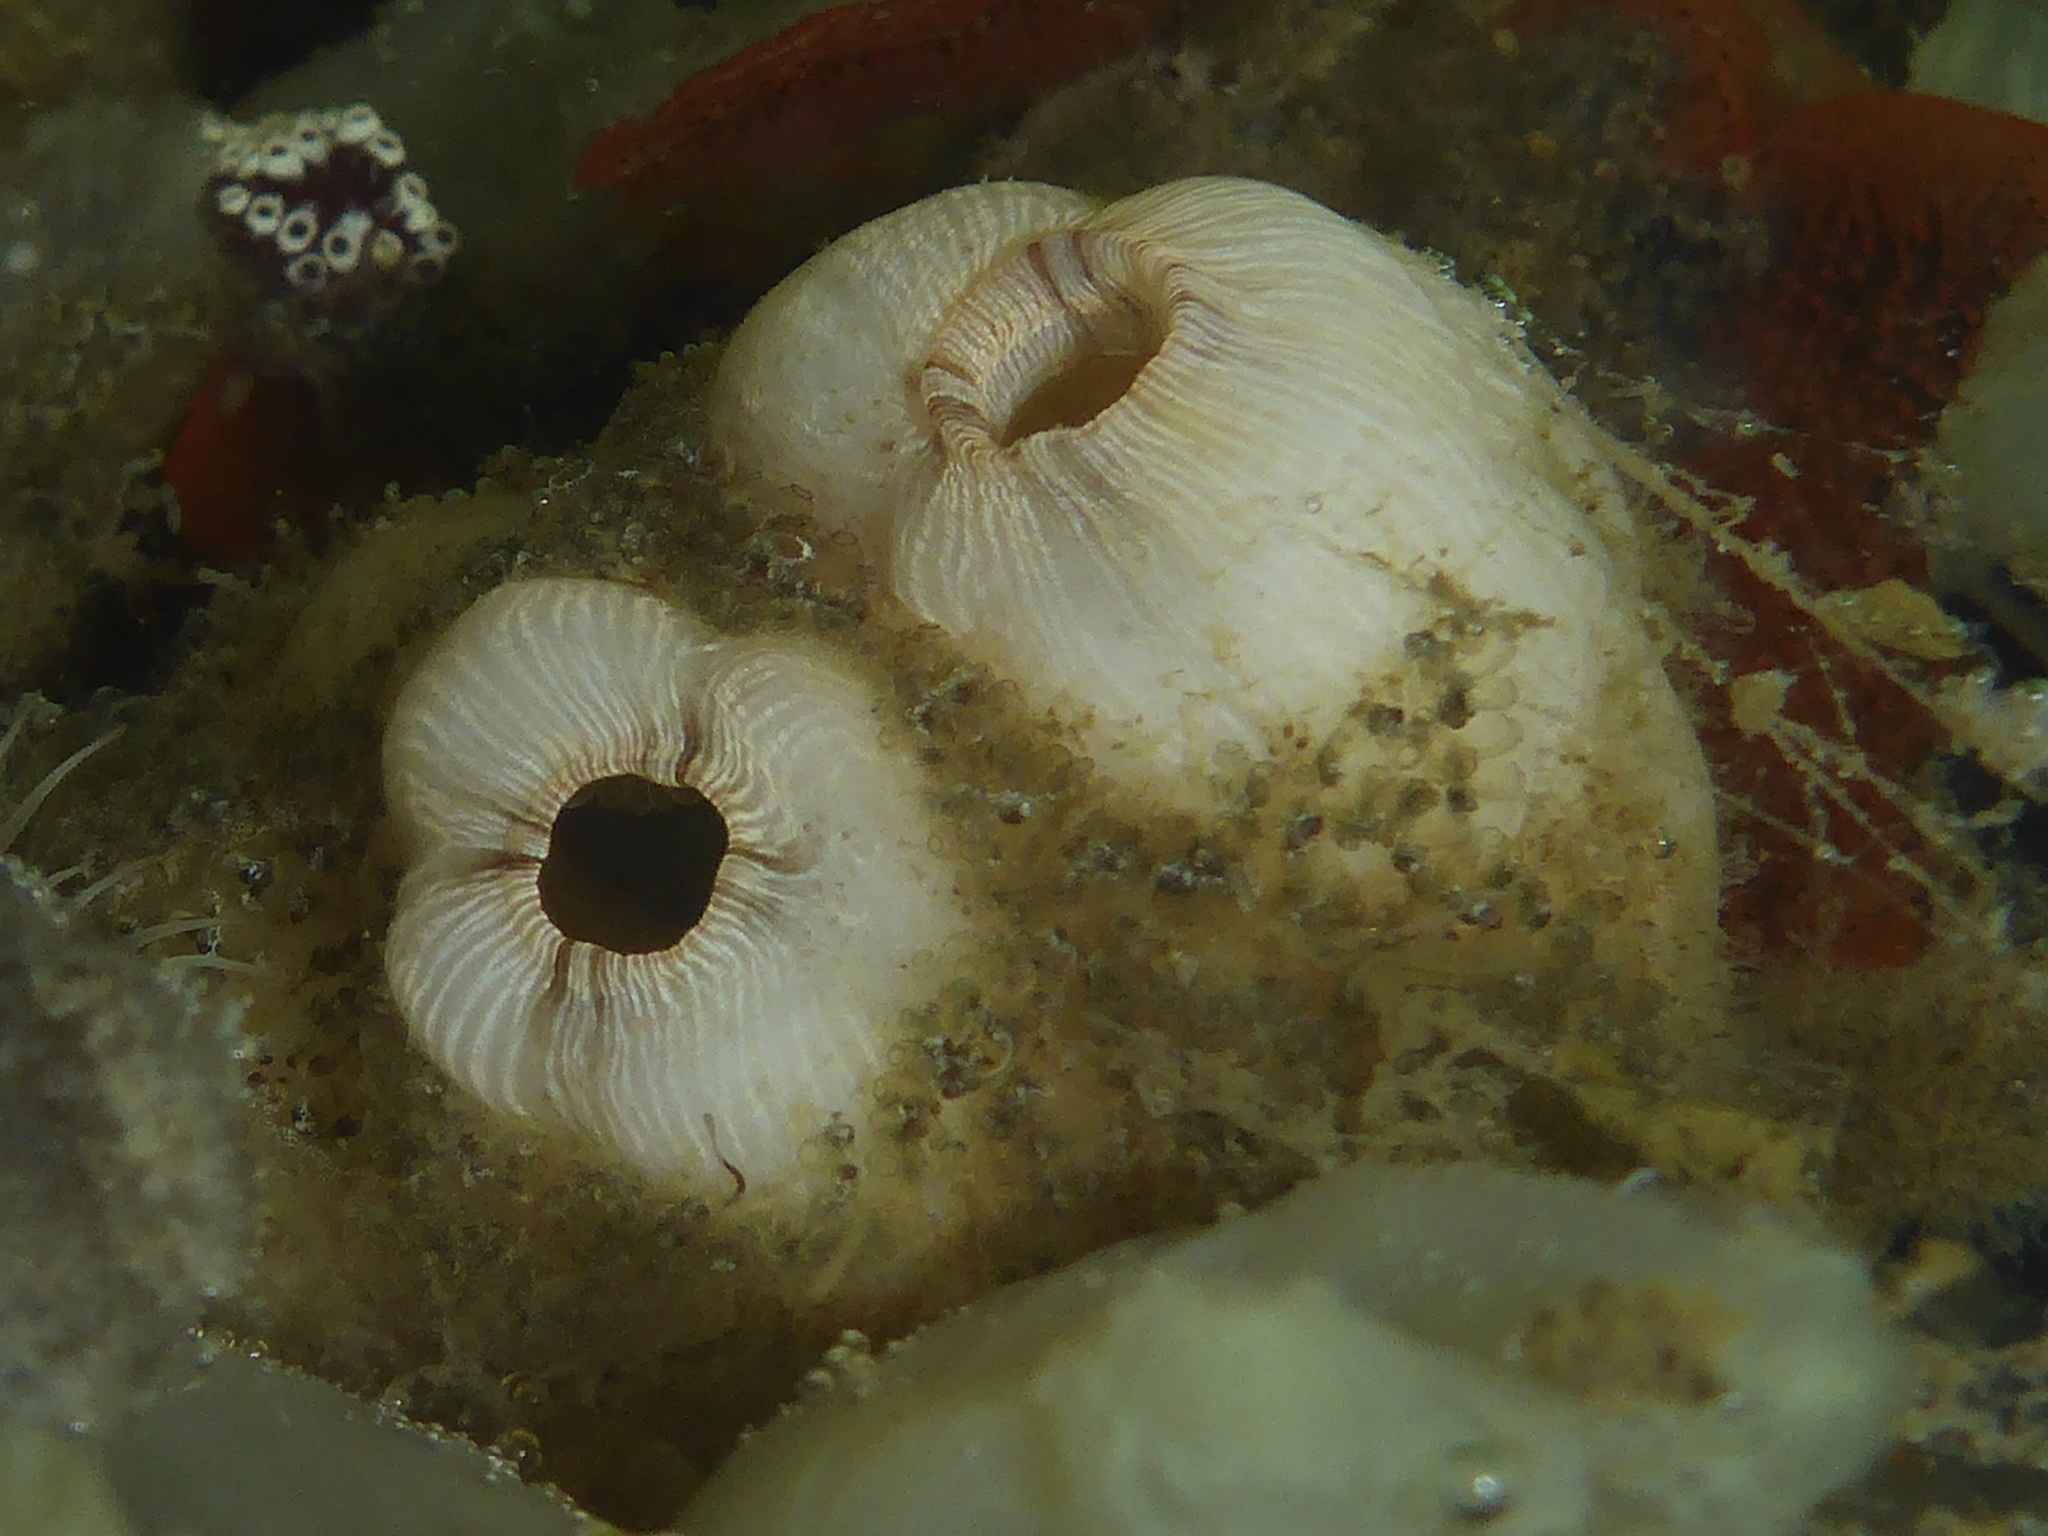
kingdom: Animalia
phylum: Chordata
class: Ascidiacea
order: Stolidobranchia
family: Styelidae
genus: Styela
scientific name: Styela plicata
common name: Pleated tunicate
